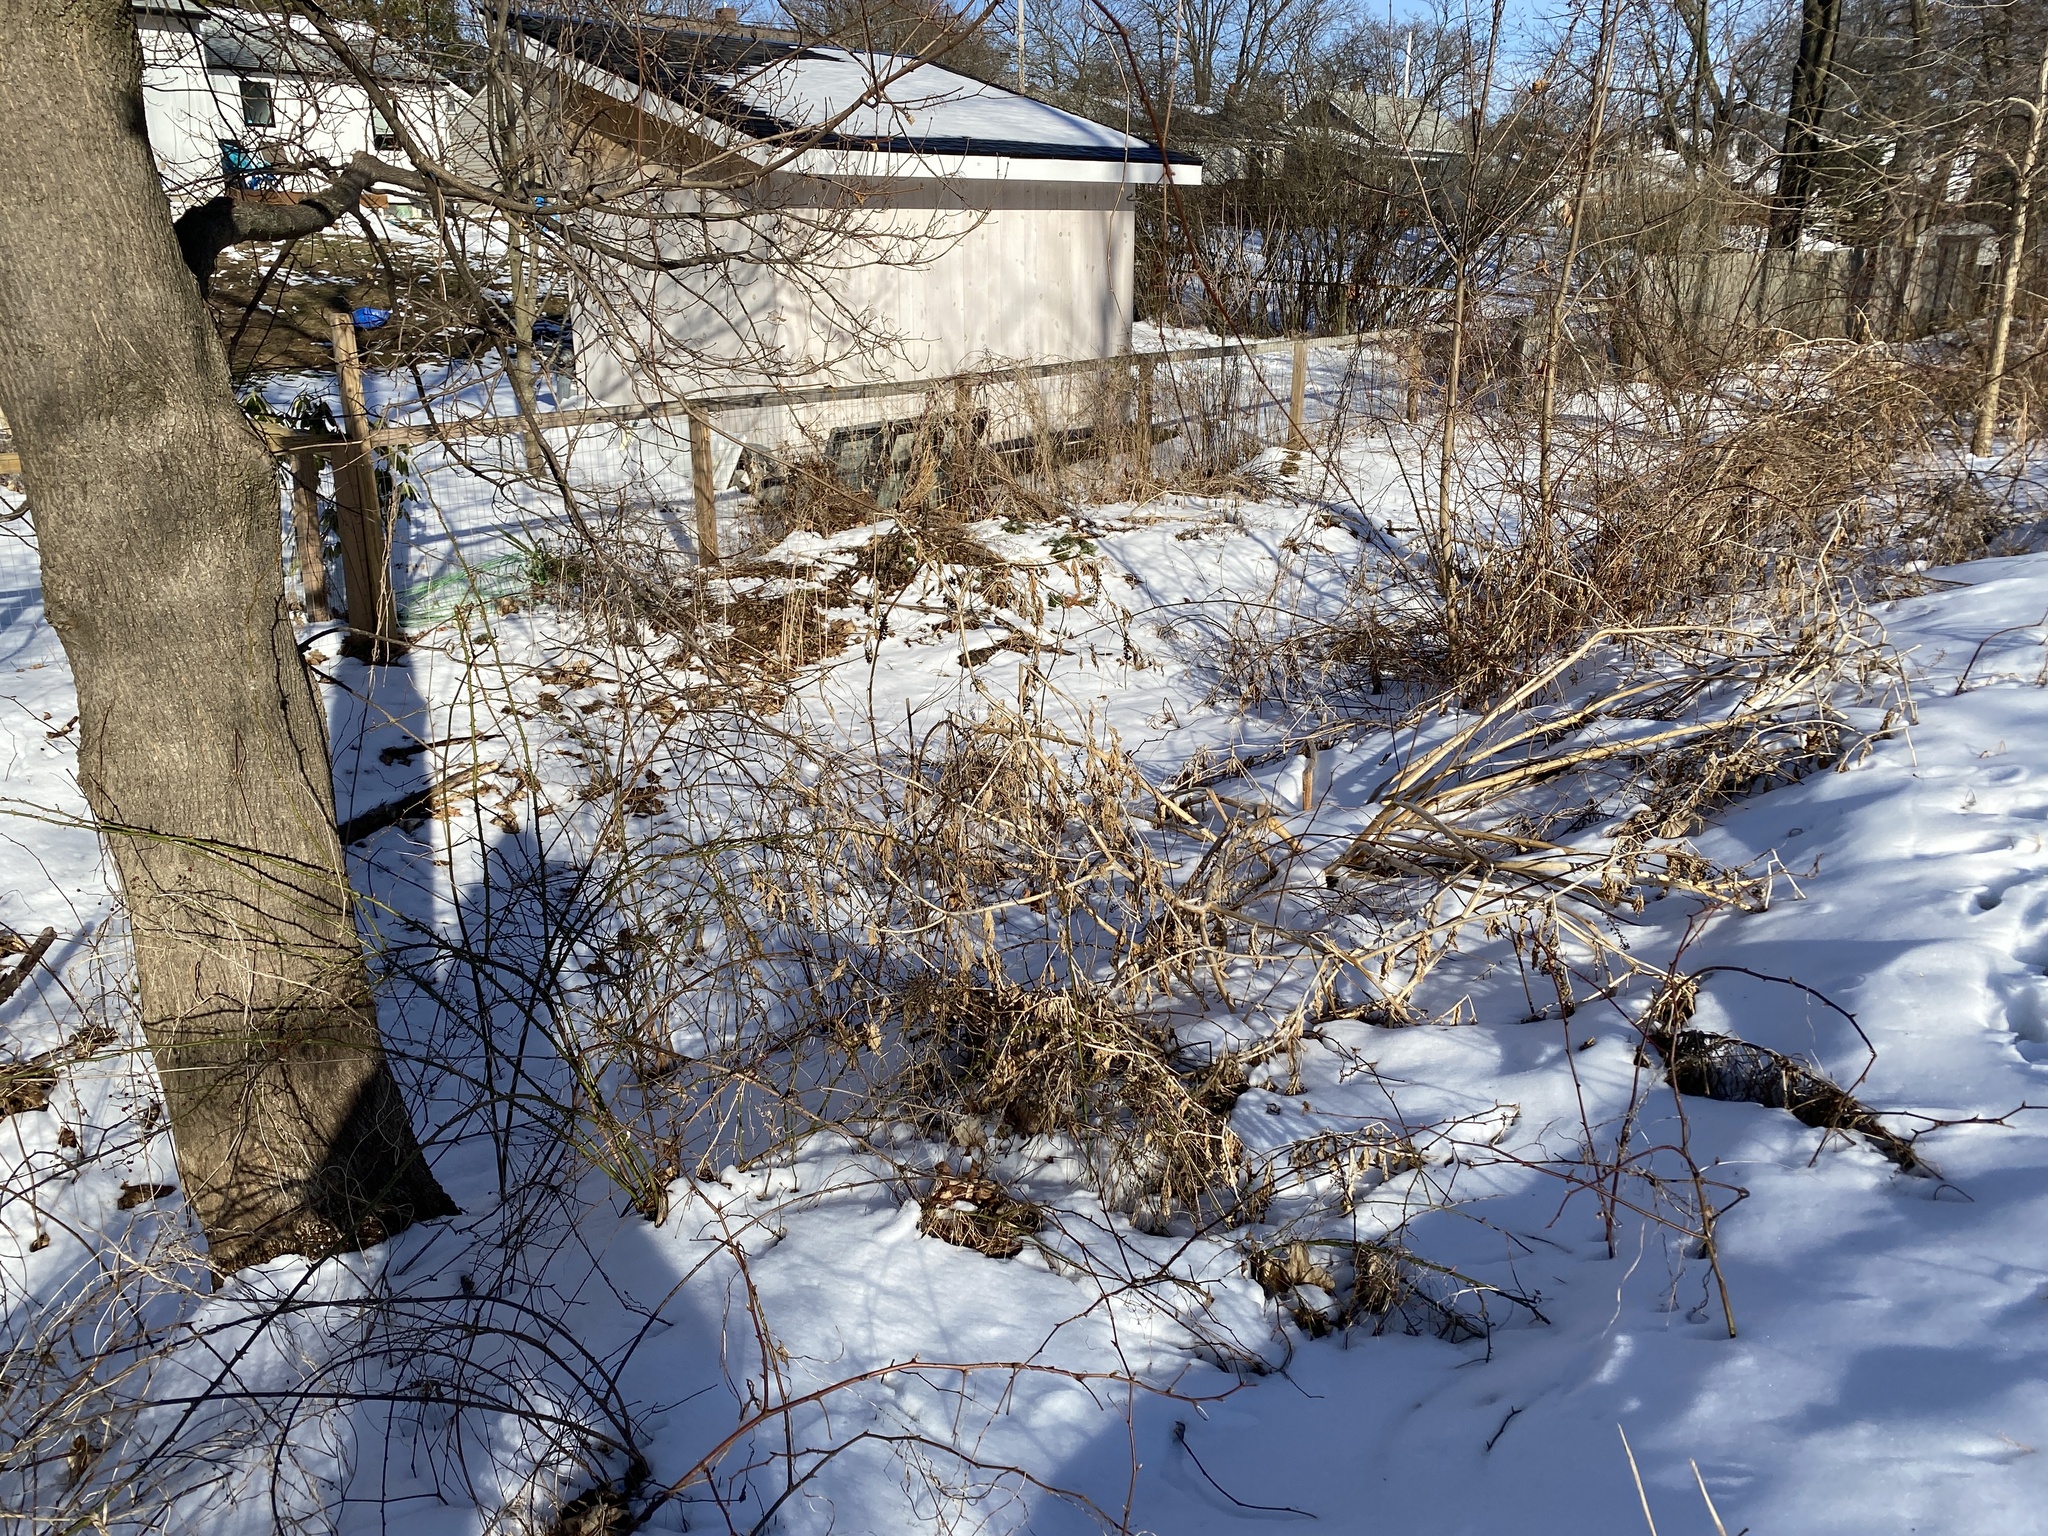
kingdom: Plantae
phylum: Tracheophyta
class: Magnoliopsida
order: Caryophyllales
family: Phytolaccaceae
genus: Phytolacca
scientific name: Phytolacca americana
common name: American pokeweed
